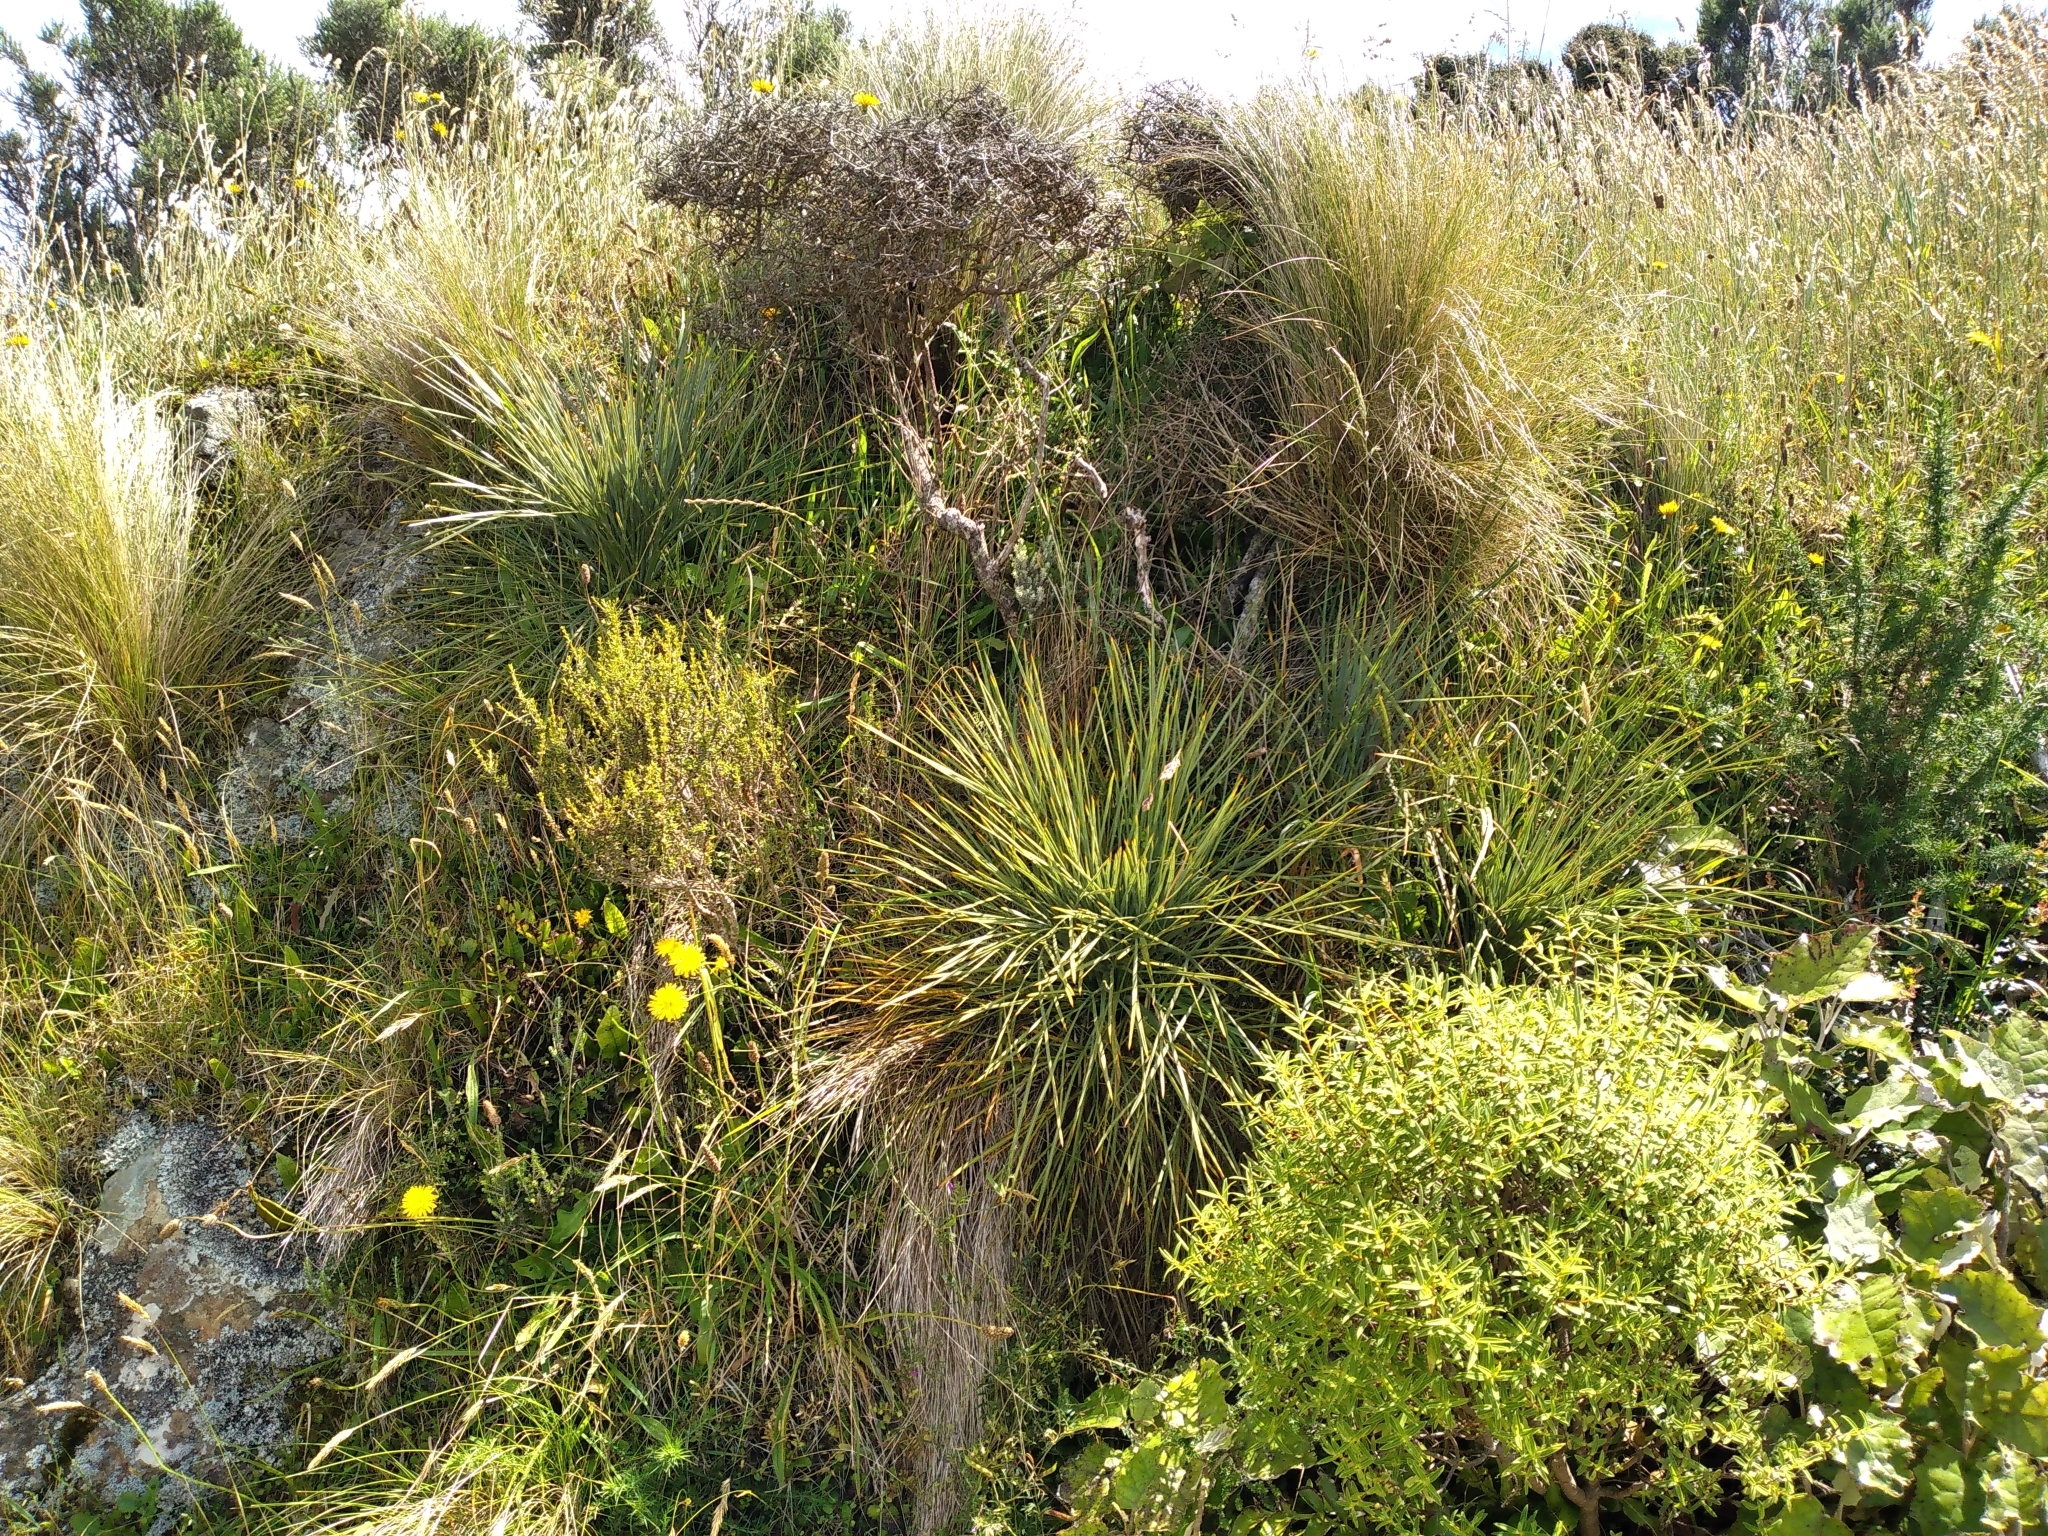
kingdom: Plantae
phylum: Tracheophyta
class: Magnoliopsida
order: Apiales
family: Apiaceae
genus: Aciphylla
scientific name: Aciphylla squarrosa
